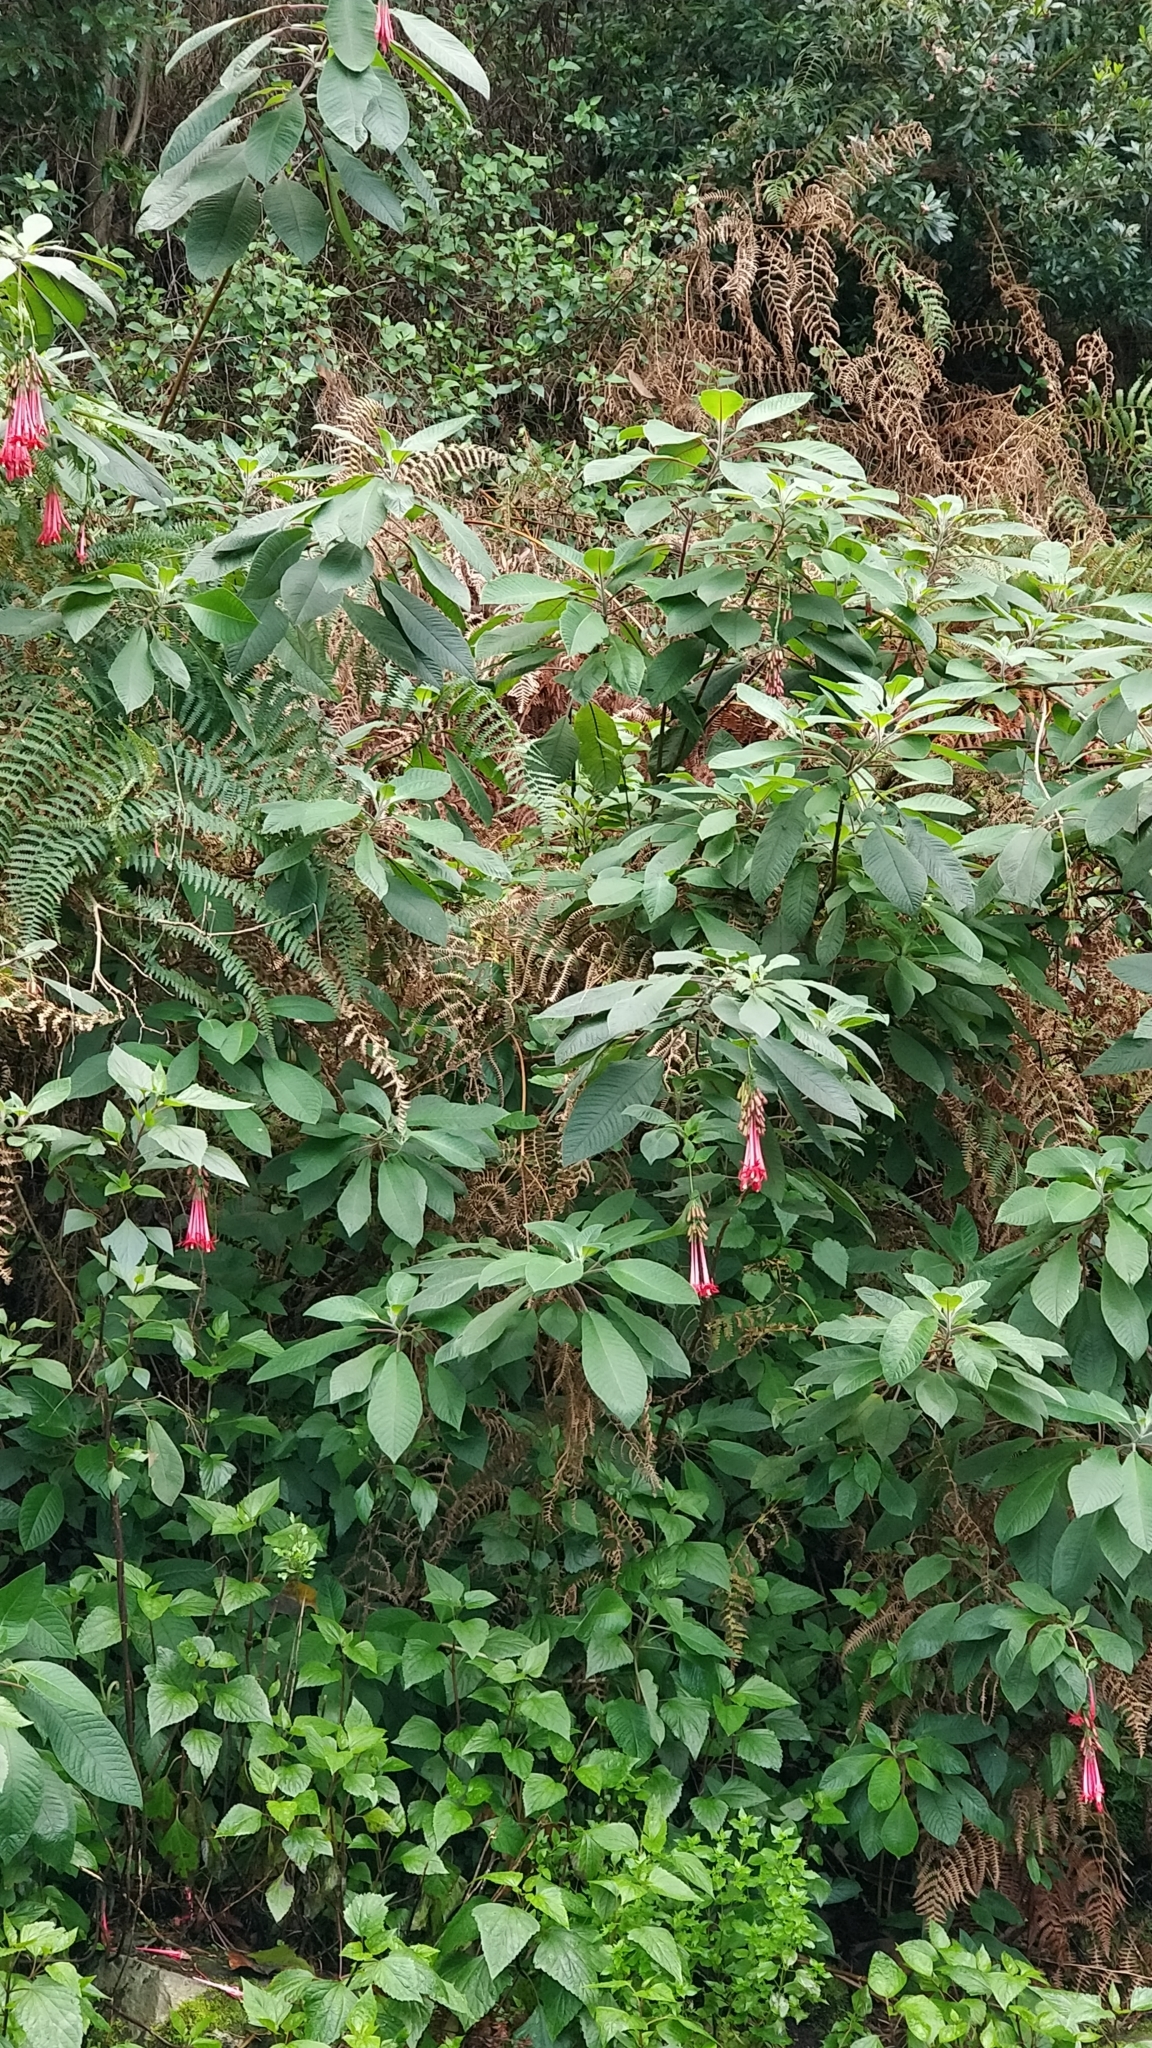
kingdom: Plantae
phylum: Tracheophyta
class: Magnoliopsida
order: Myrtales
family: Onagraceae
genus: Fuchsia
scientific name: Fuchsia boliviana
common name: Bolivian fuchsia
